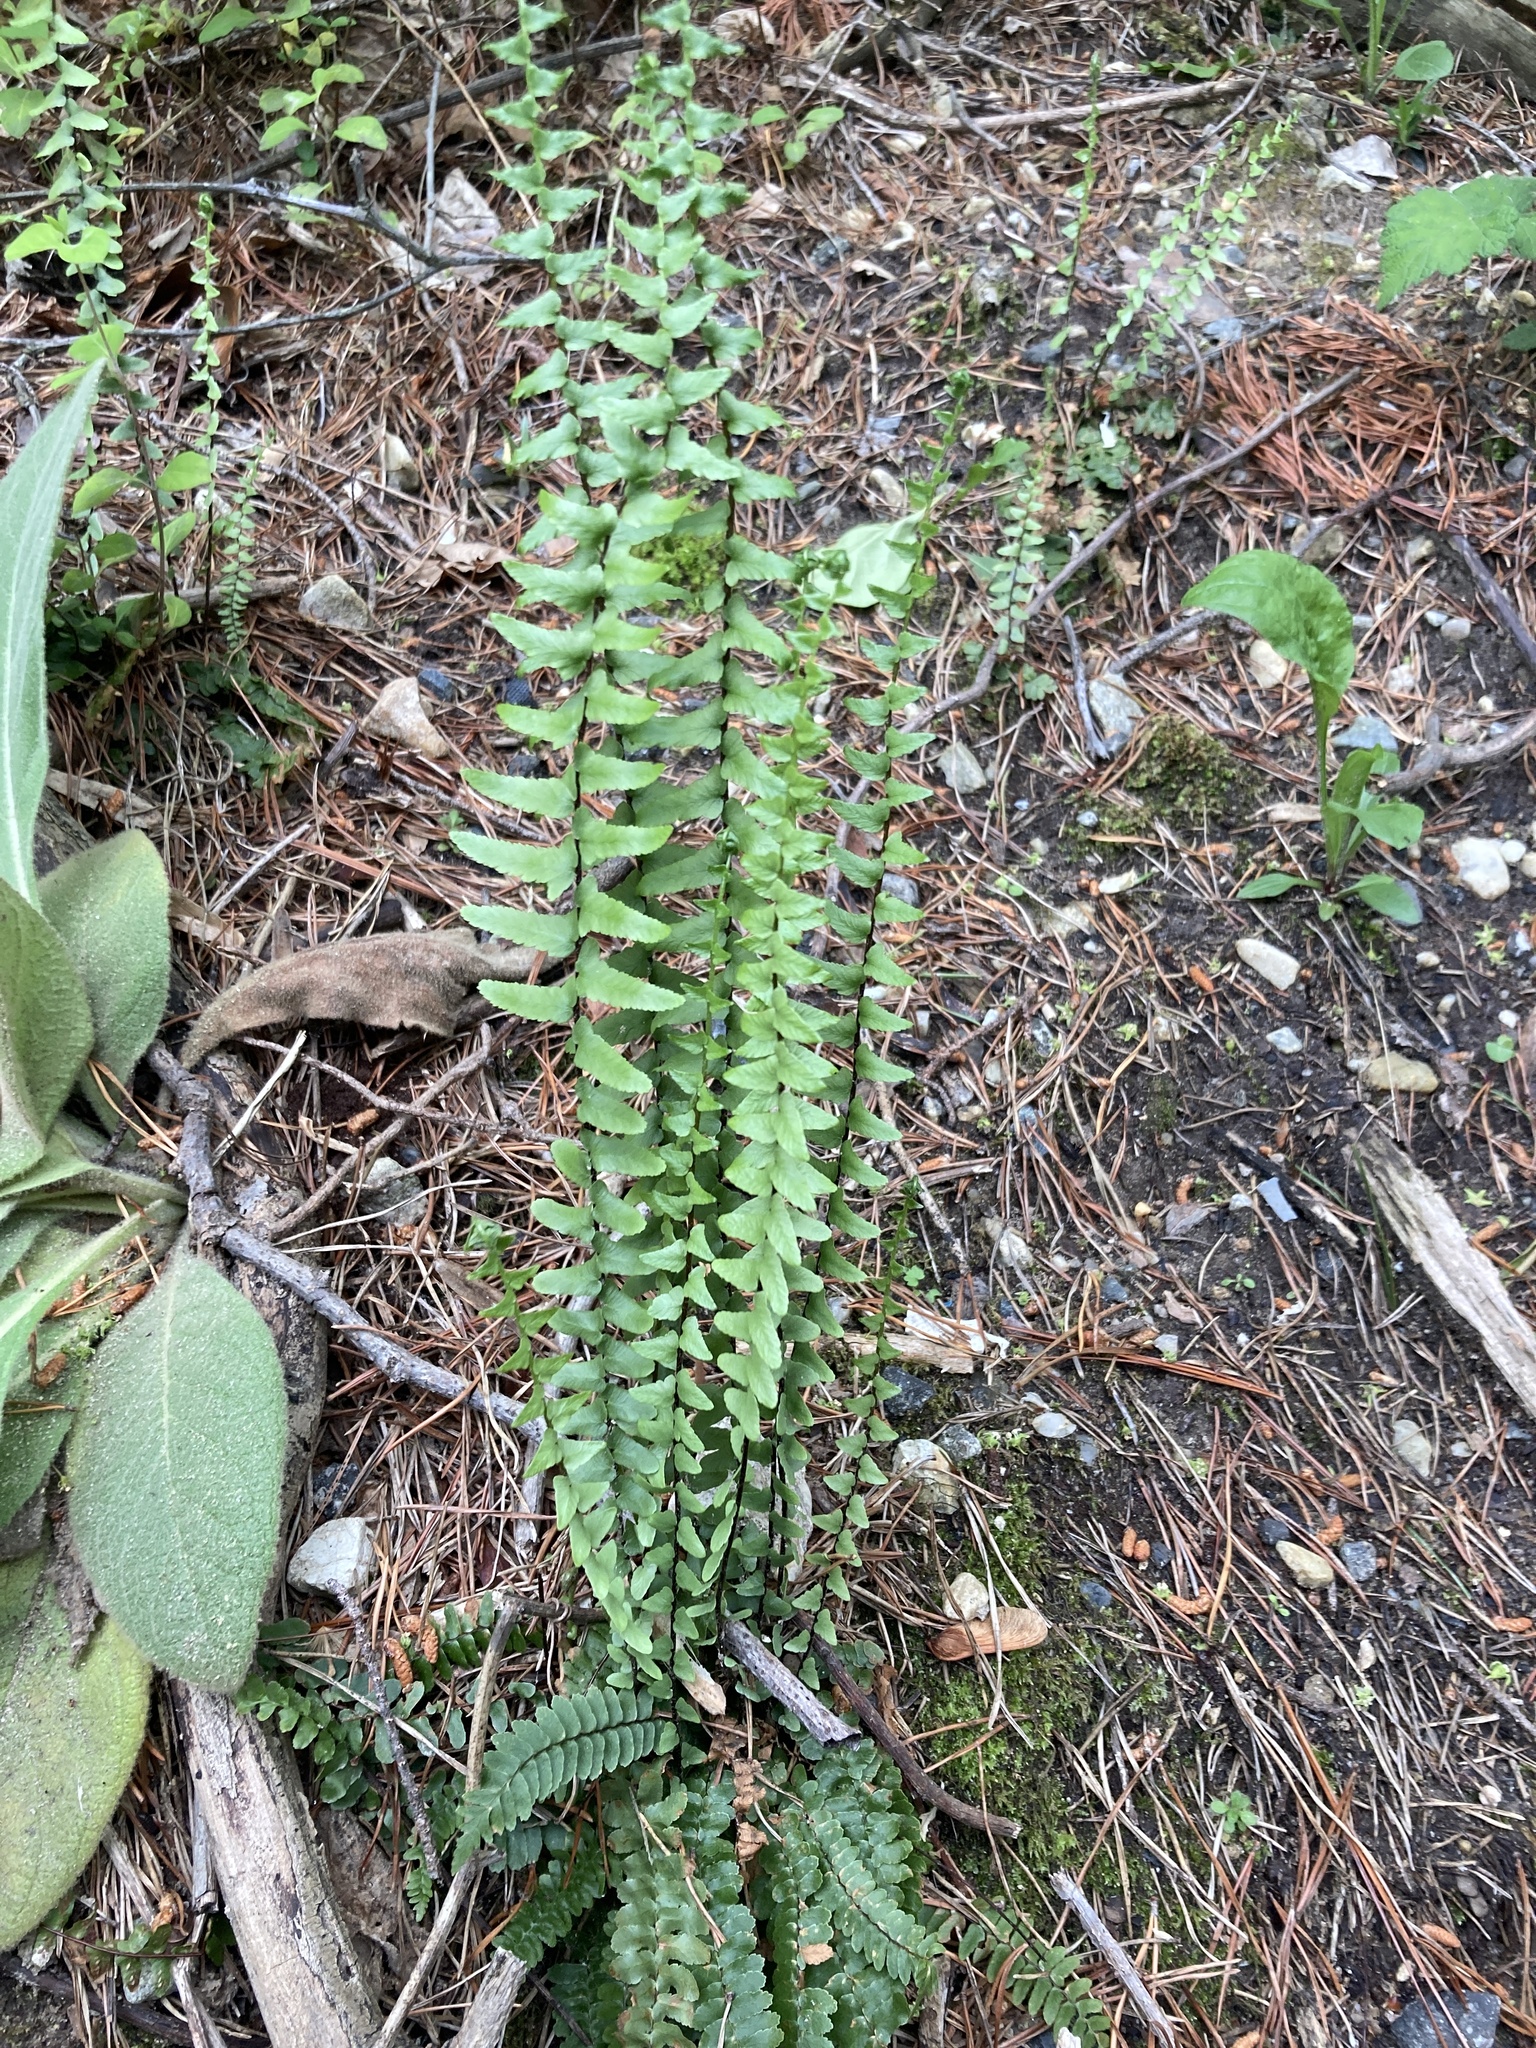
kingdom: Plantae
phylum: Tracheophyta
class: Polypodiopsida
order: Polypodiales
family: Aspleniaceae
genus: Asplenium
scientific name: Asplenium platyneuron
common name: Ebony spleenwort
